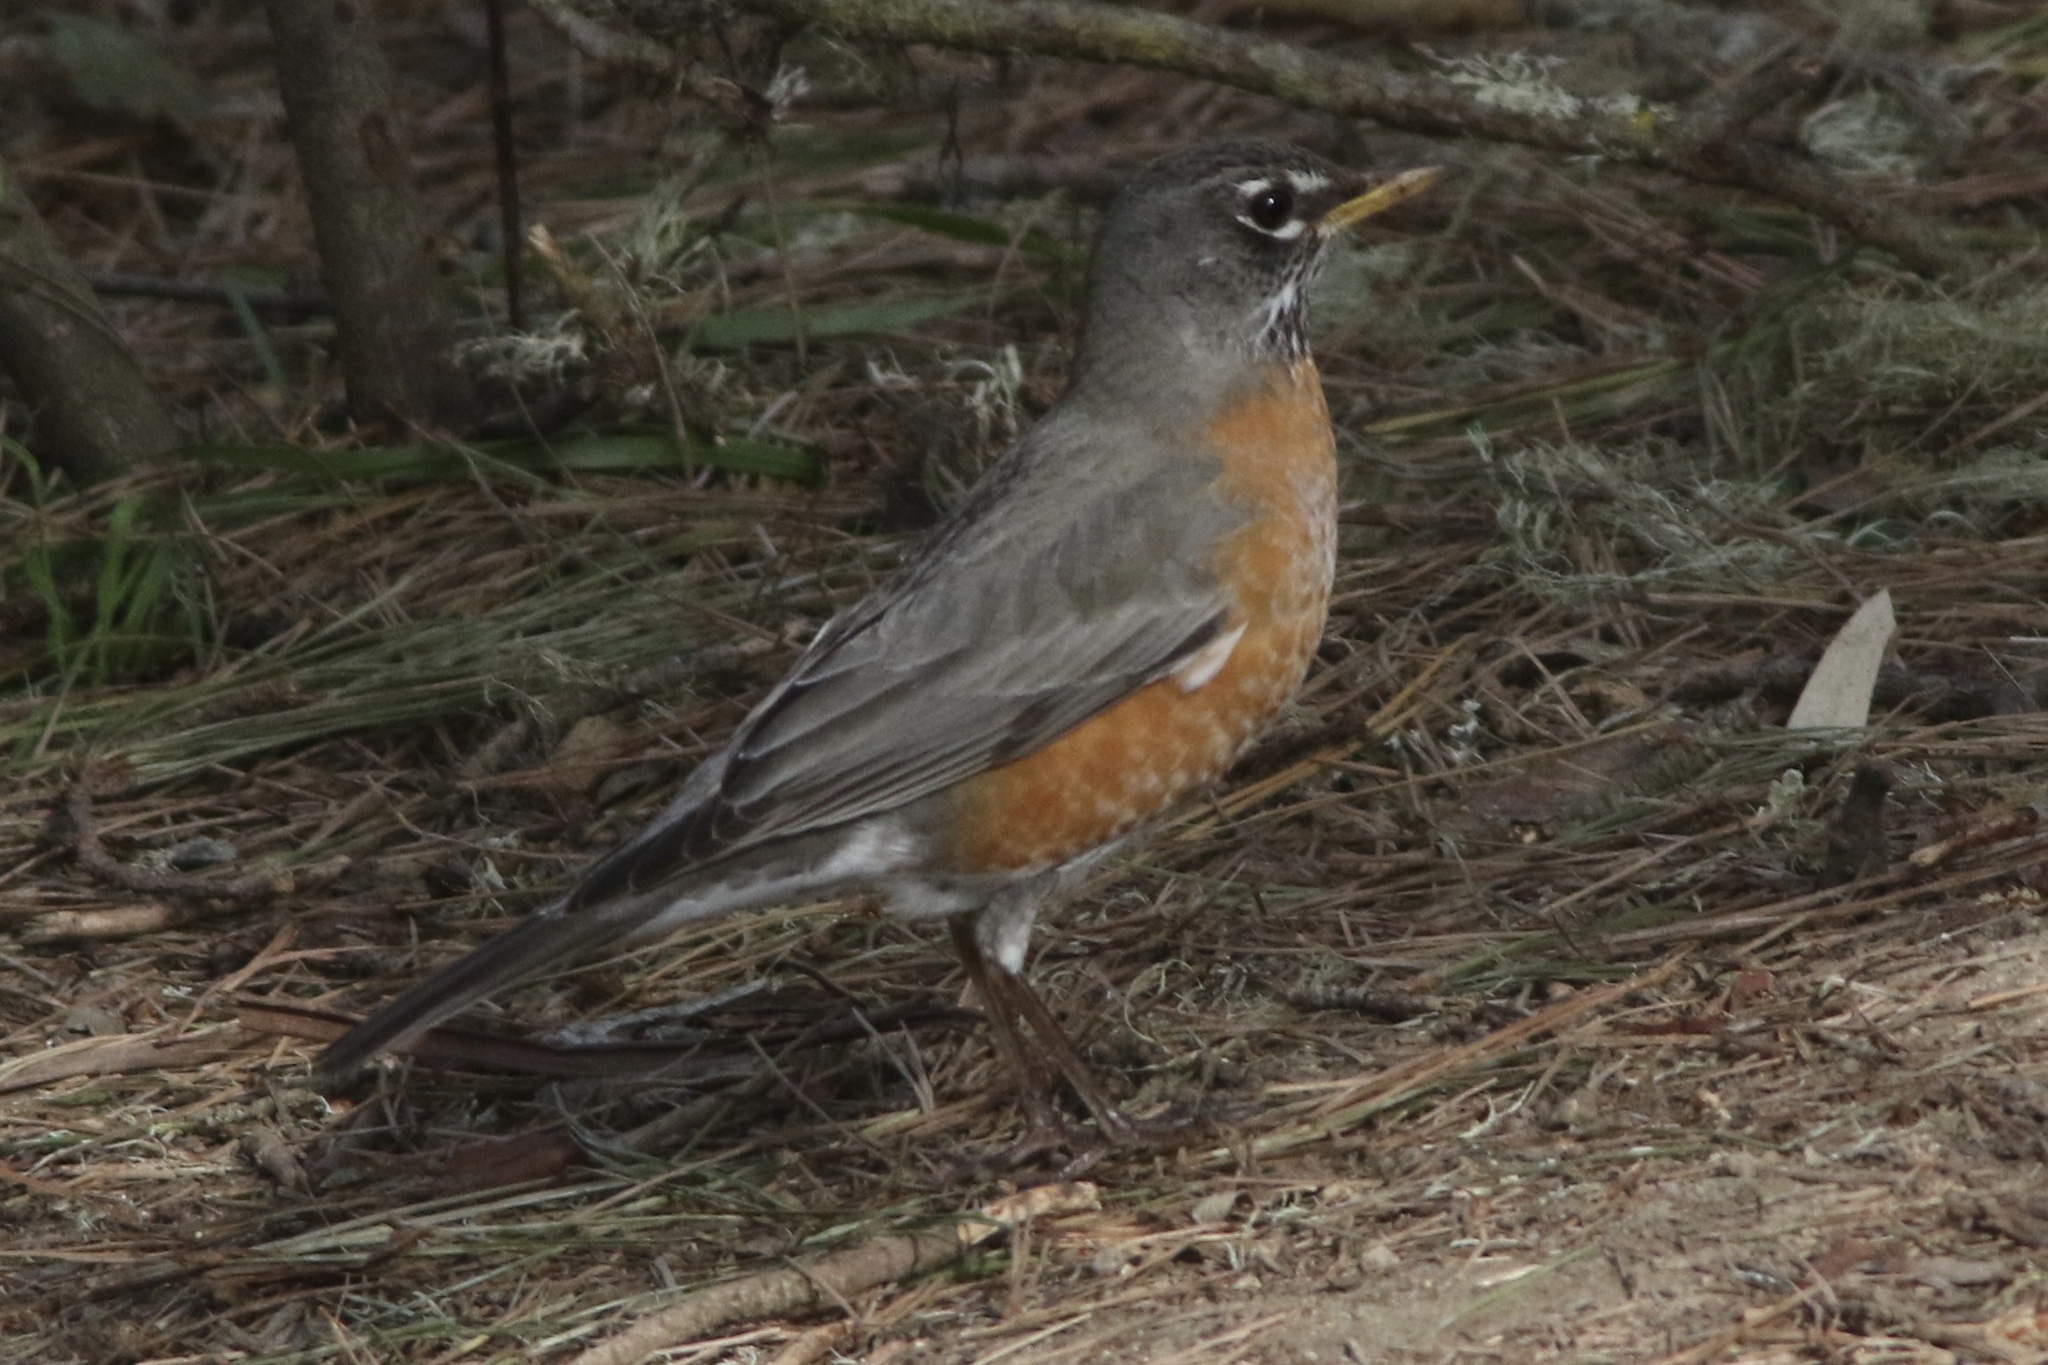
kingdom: Animalia
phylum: Chordata
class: Aves
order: Passeriformes
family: Turdidae
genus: Turdus
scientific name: Turdus migratorius
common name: American robin
